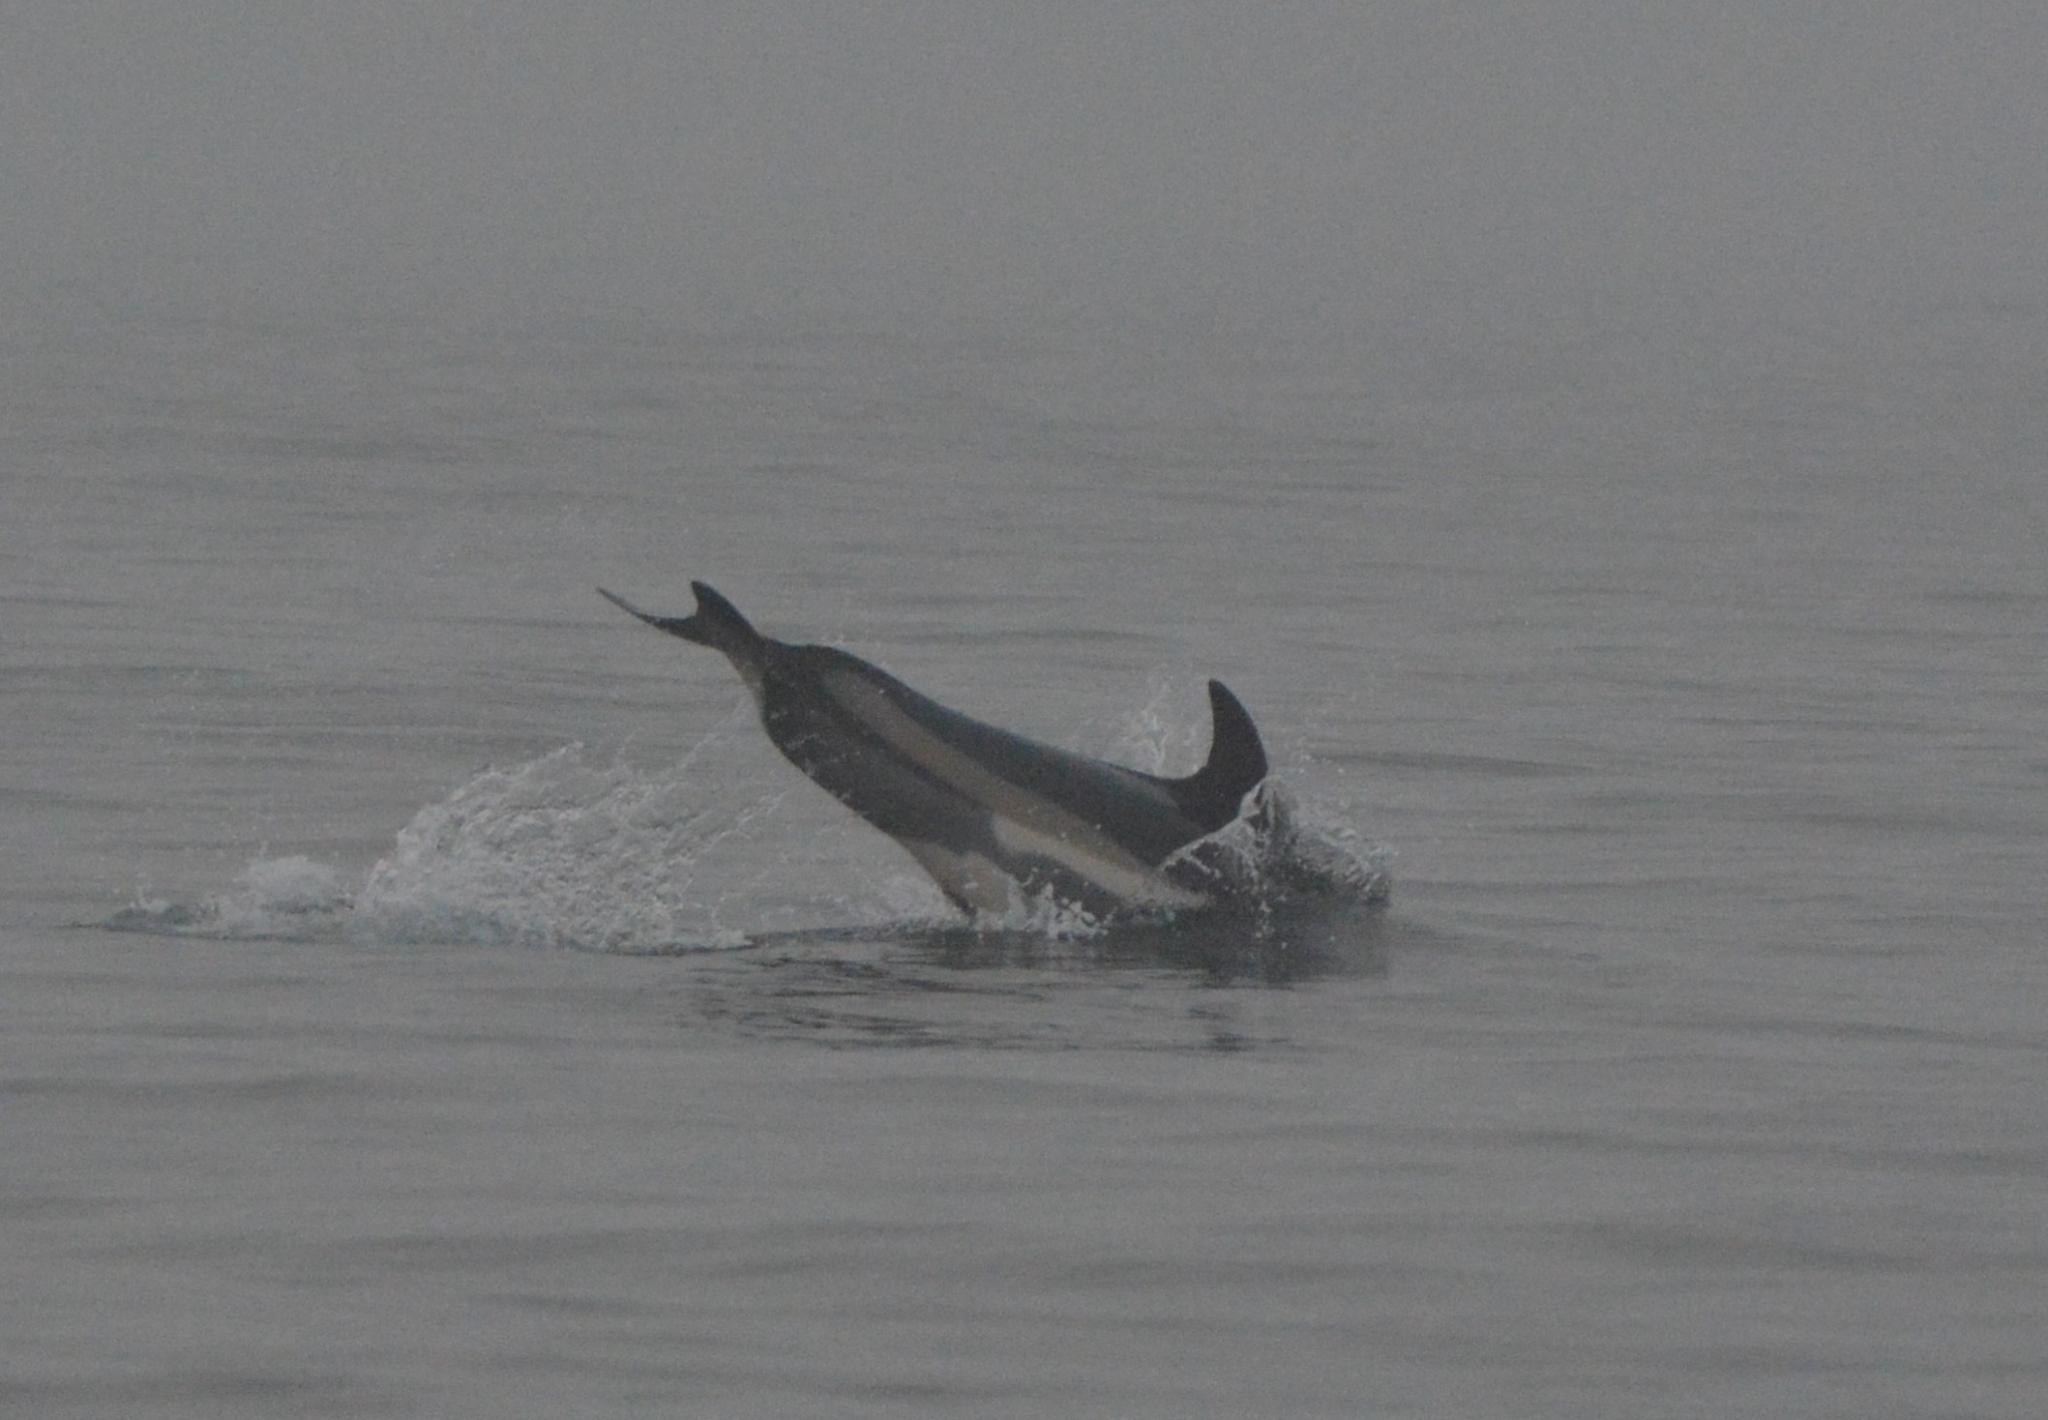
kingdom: Animalia
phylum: Chordata
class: Mammalia
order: Cetacea
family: Delphinidae
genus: Lagenorhynchus
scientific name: Lagenorhynchus acutus
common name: Atlantic white-sided dolphin
